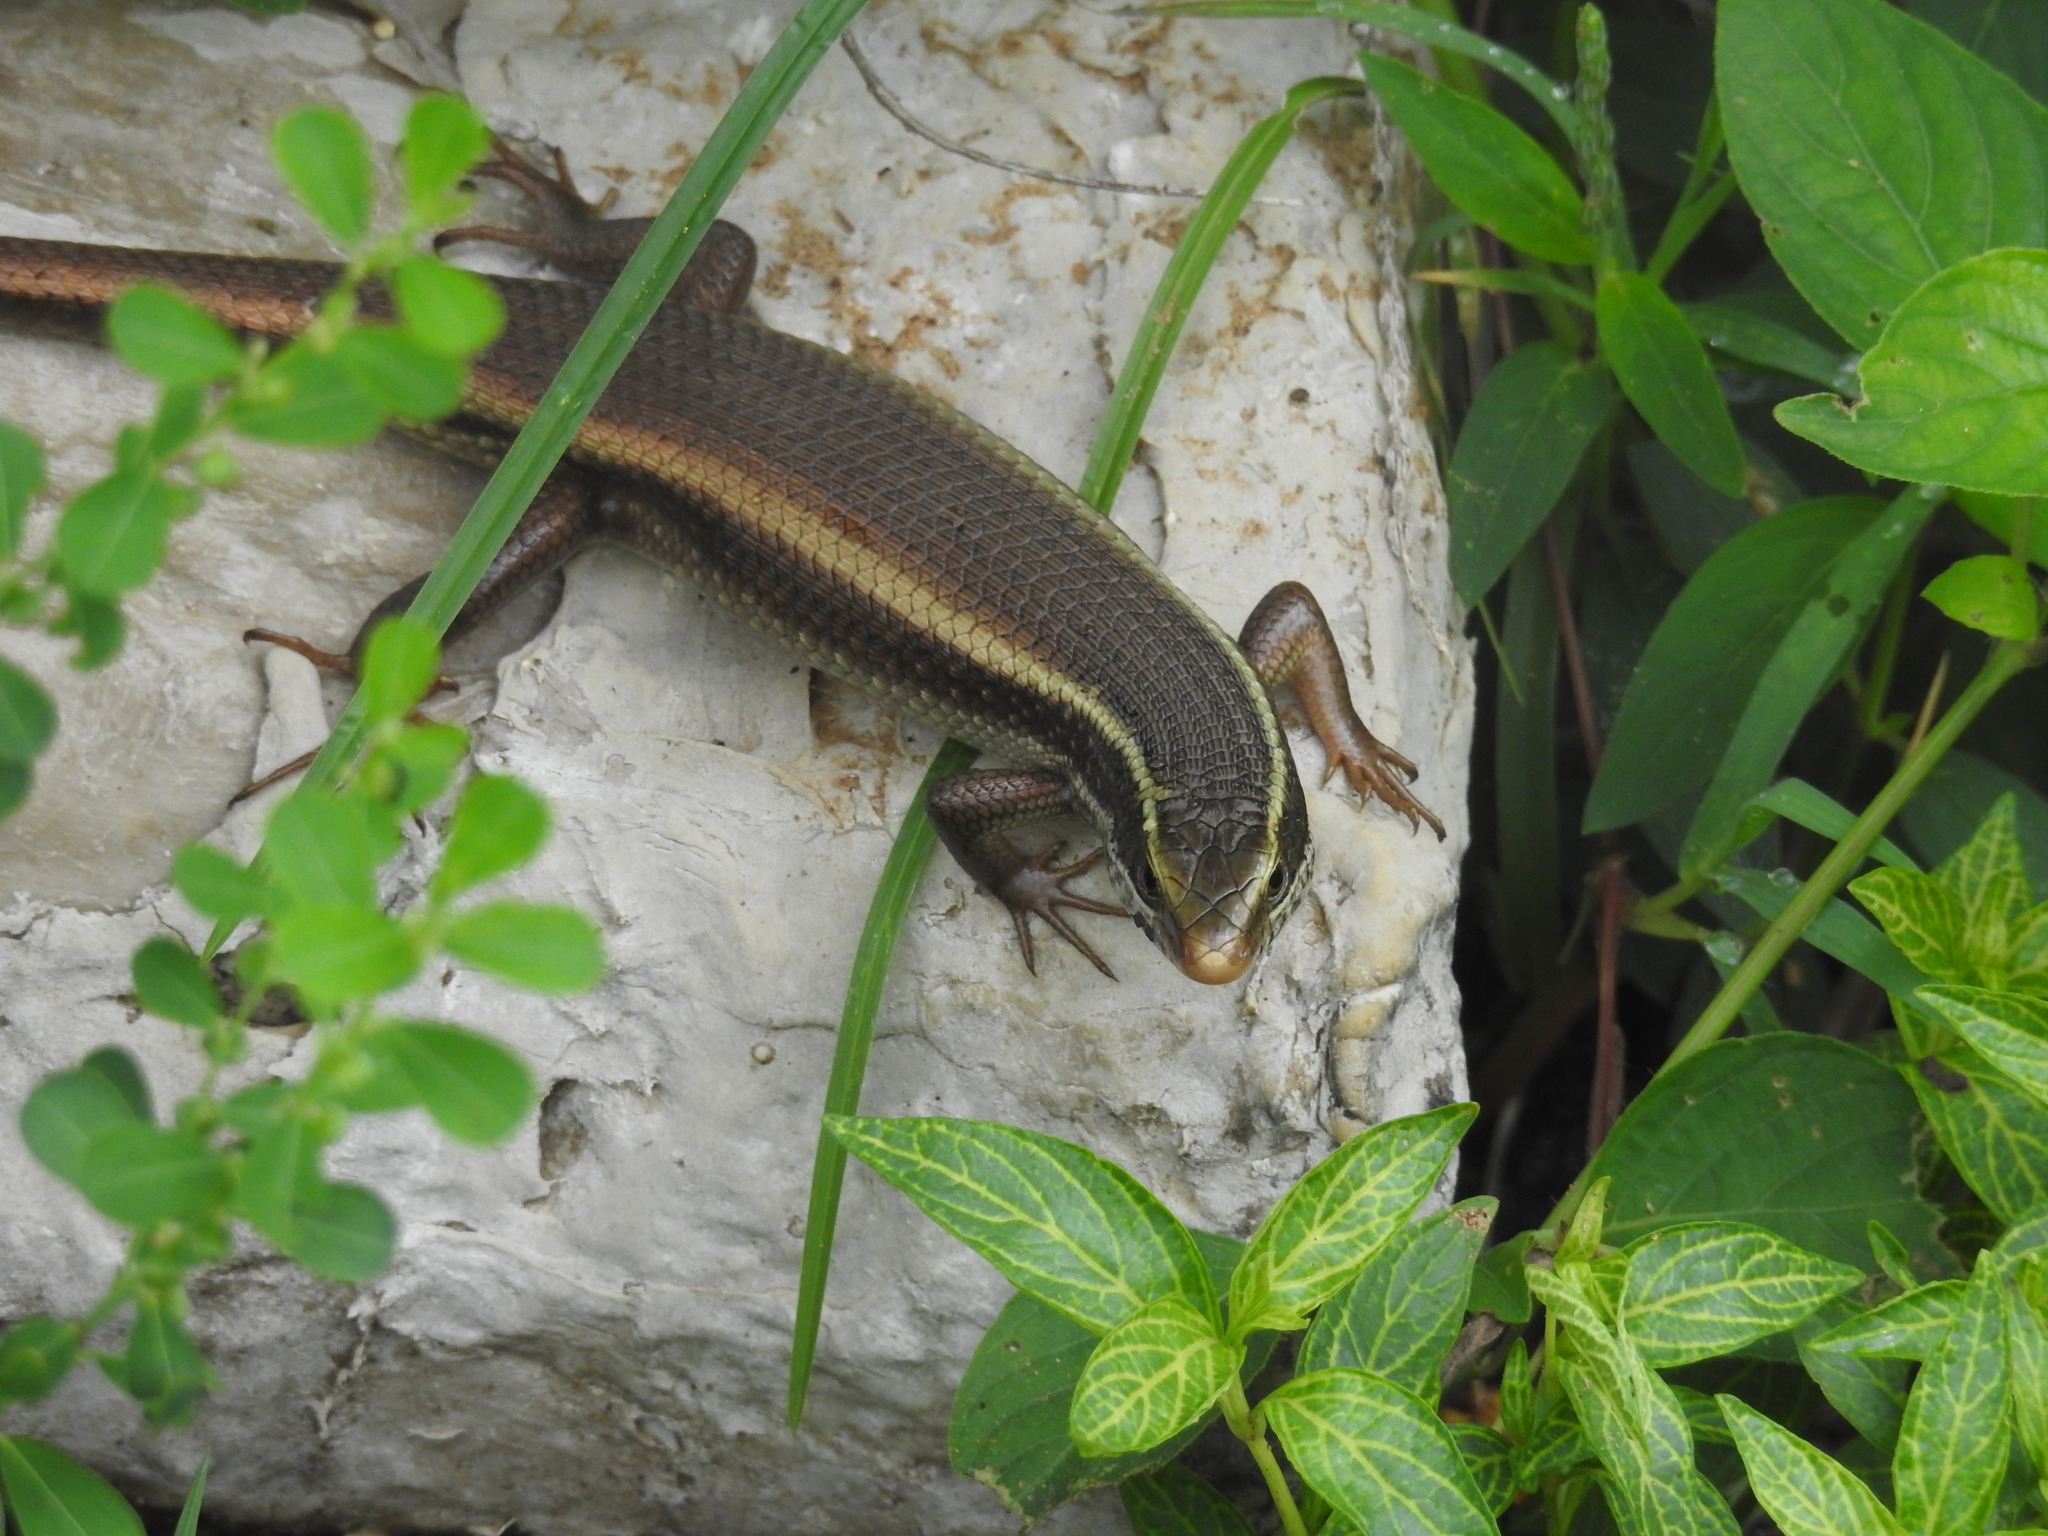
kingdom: Animalia
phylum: Chordata
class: Squamata
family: Scincidae
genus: Eutropis
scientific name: Eutropis carinata
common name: Keeled indian mabuya
